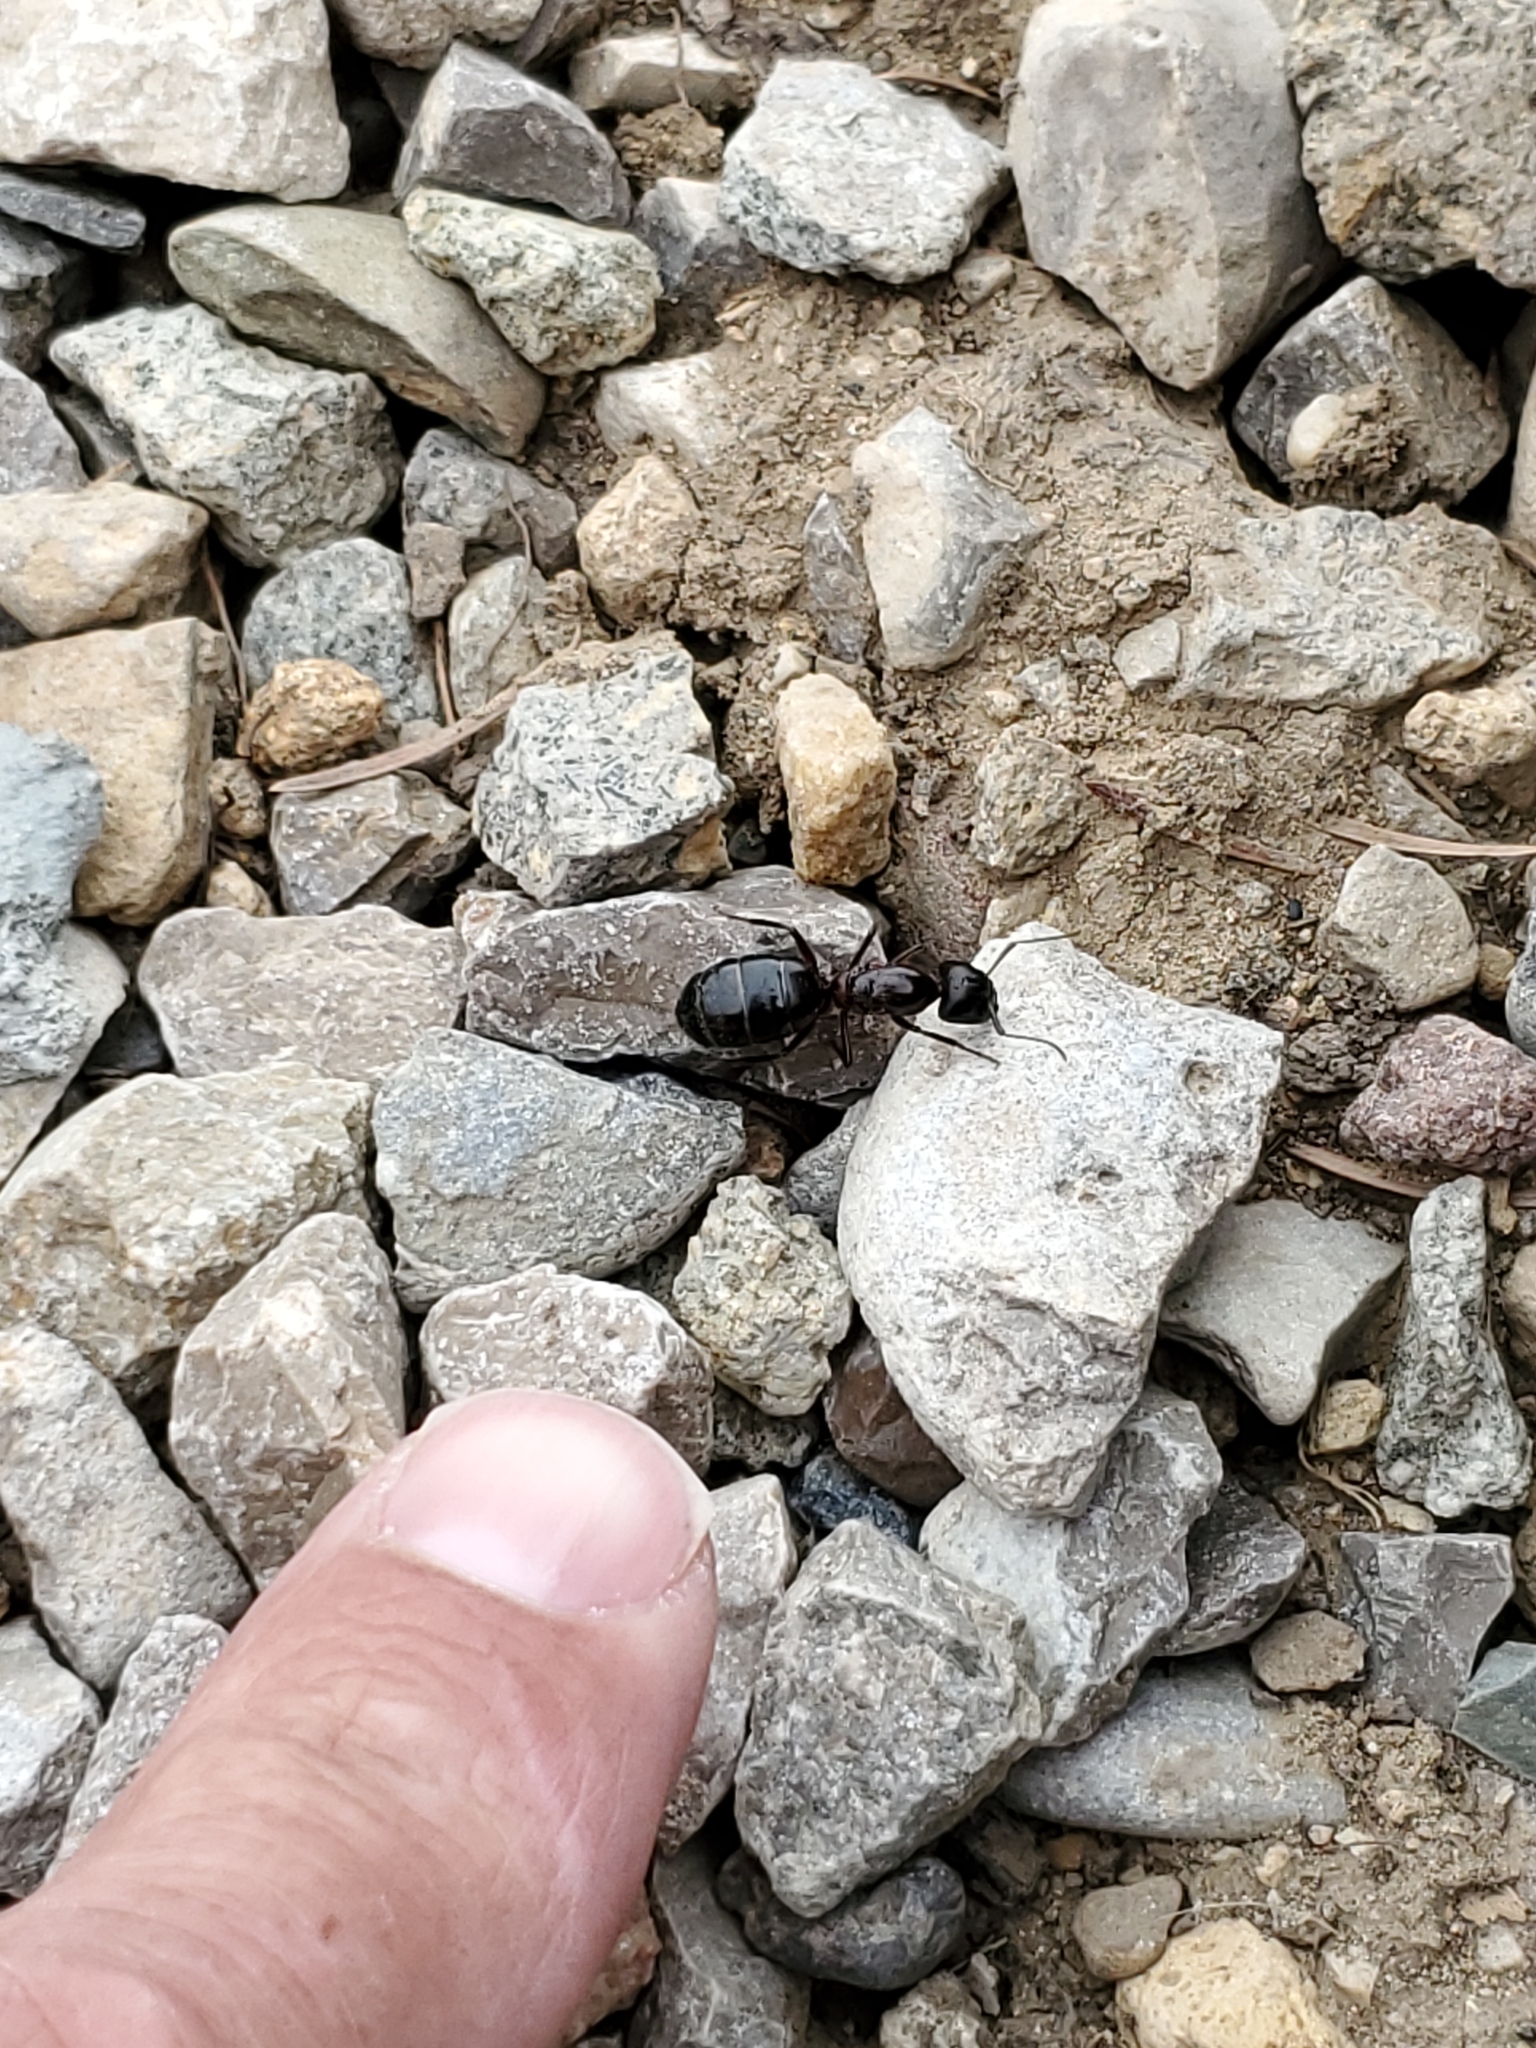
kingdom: Animalia
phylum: Arthropoda
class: Insecta
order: Hymenoptera
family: Formicidae
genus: Camponotus
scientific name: Camponotus novaeboracensis
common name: New york carpenter ant
